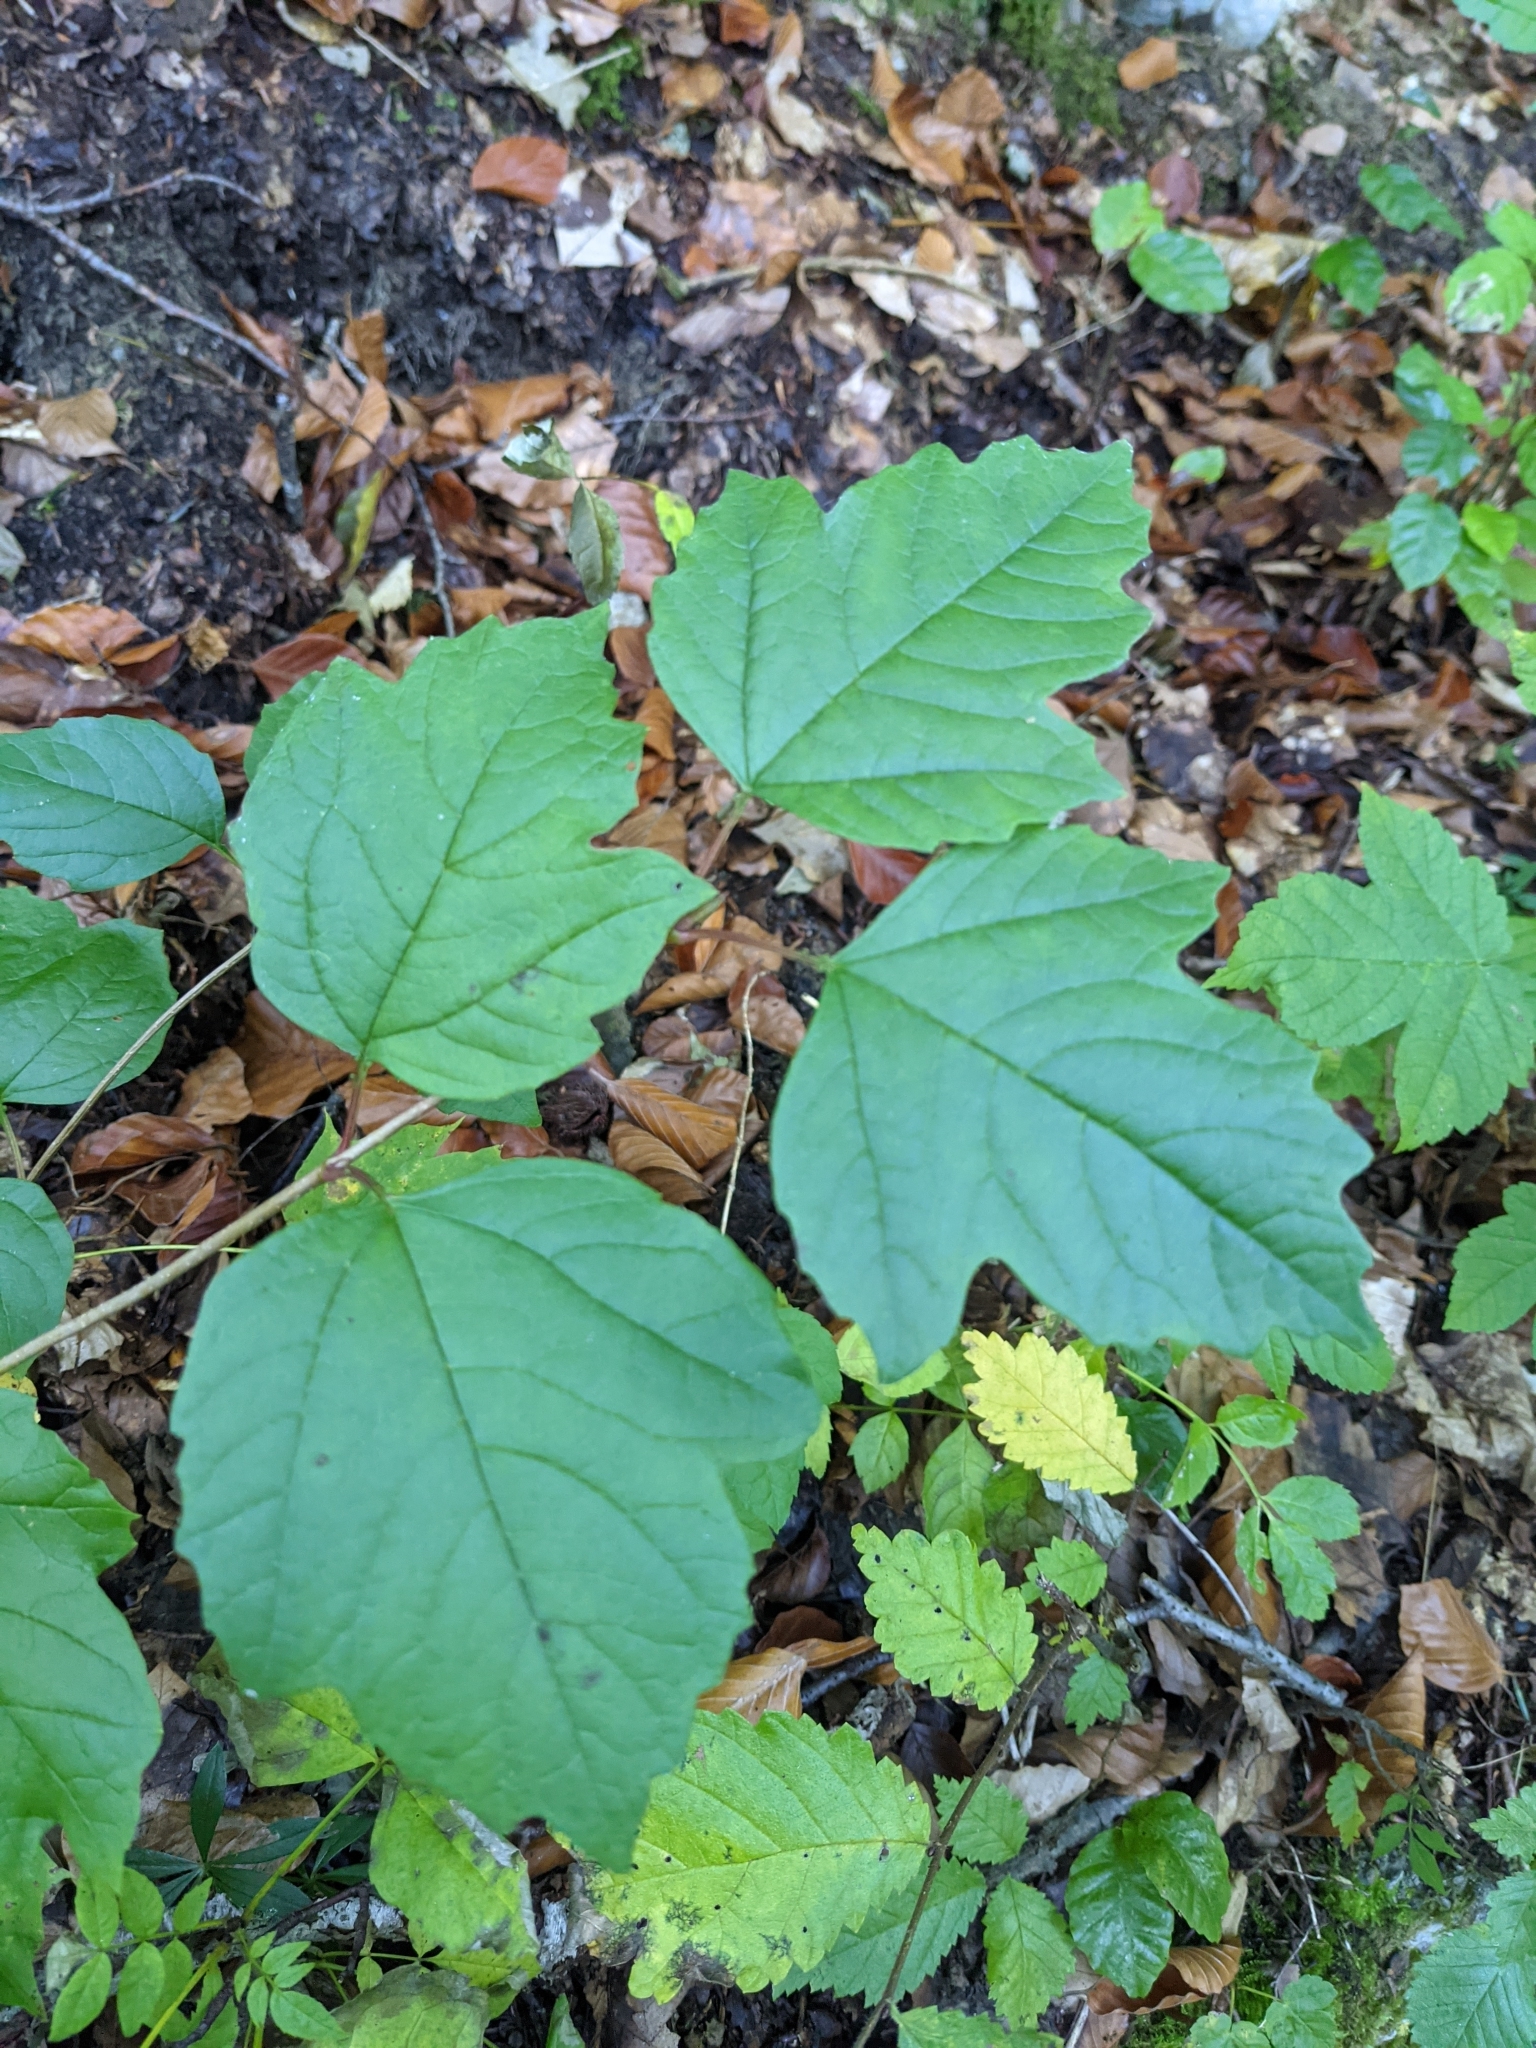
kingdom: Plantae
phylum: Tracheophyta
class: Magnoliopsida
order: Dipsacales
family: Viburnaceae
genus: Viburnum
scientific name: Viburnum opulus
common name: Guelder-rose
